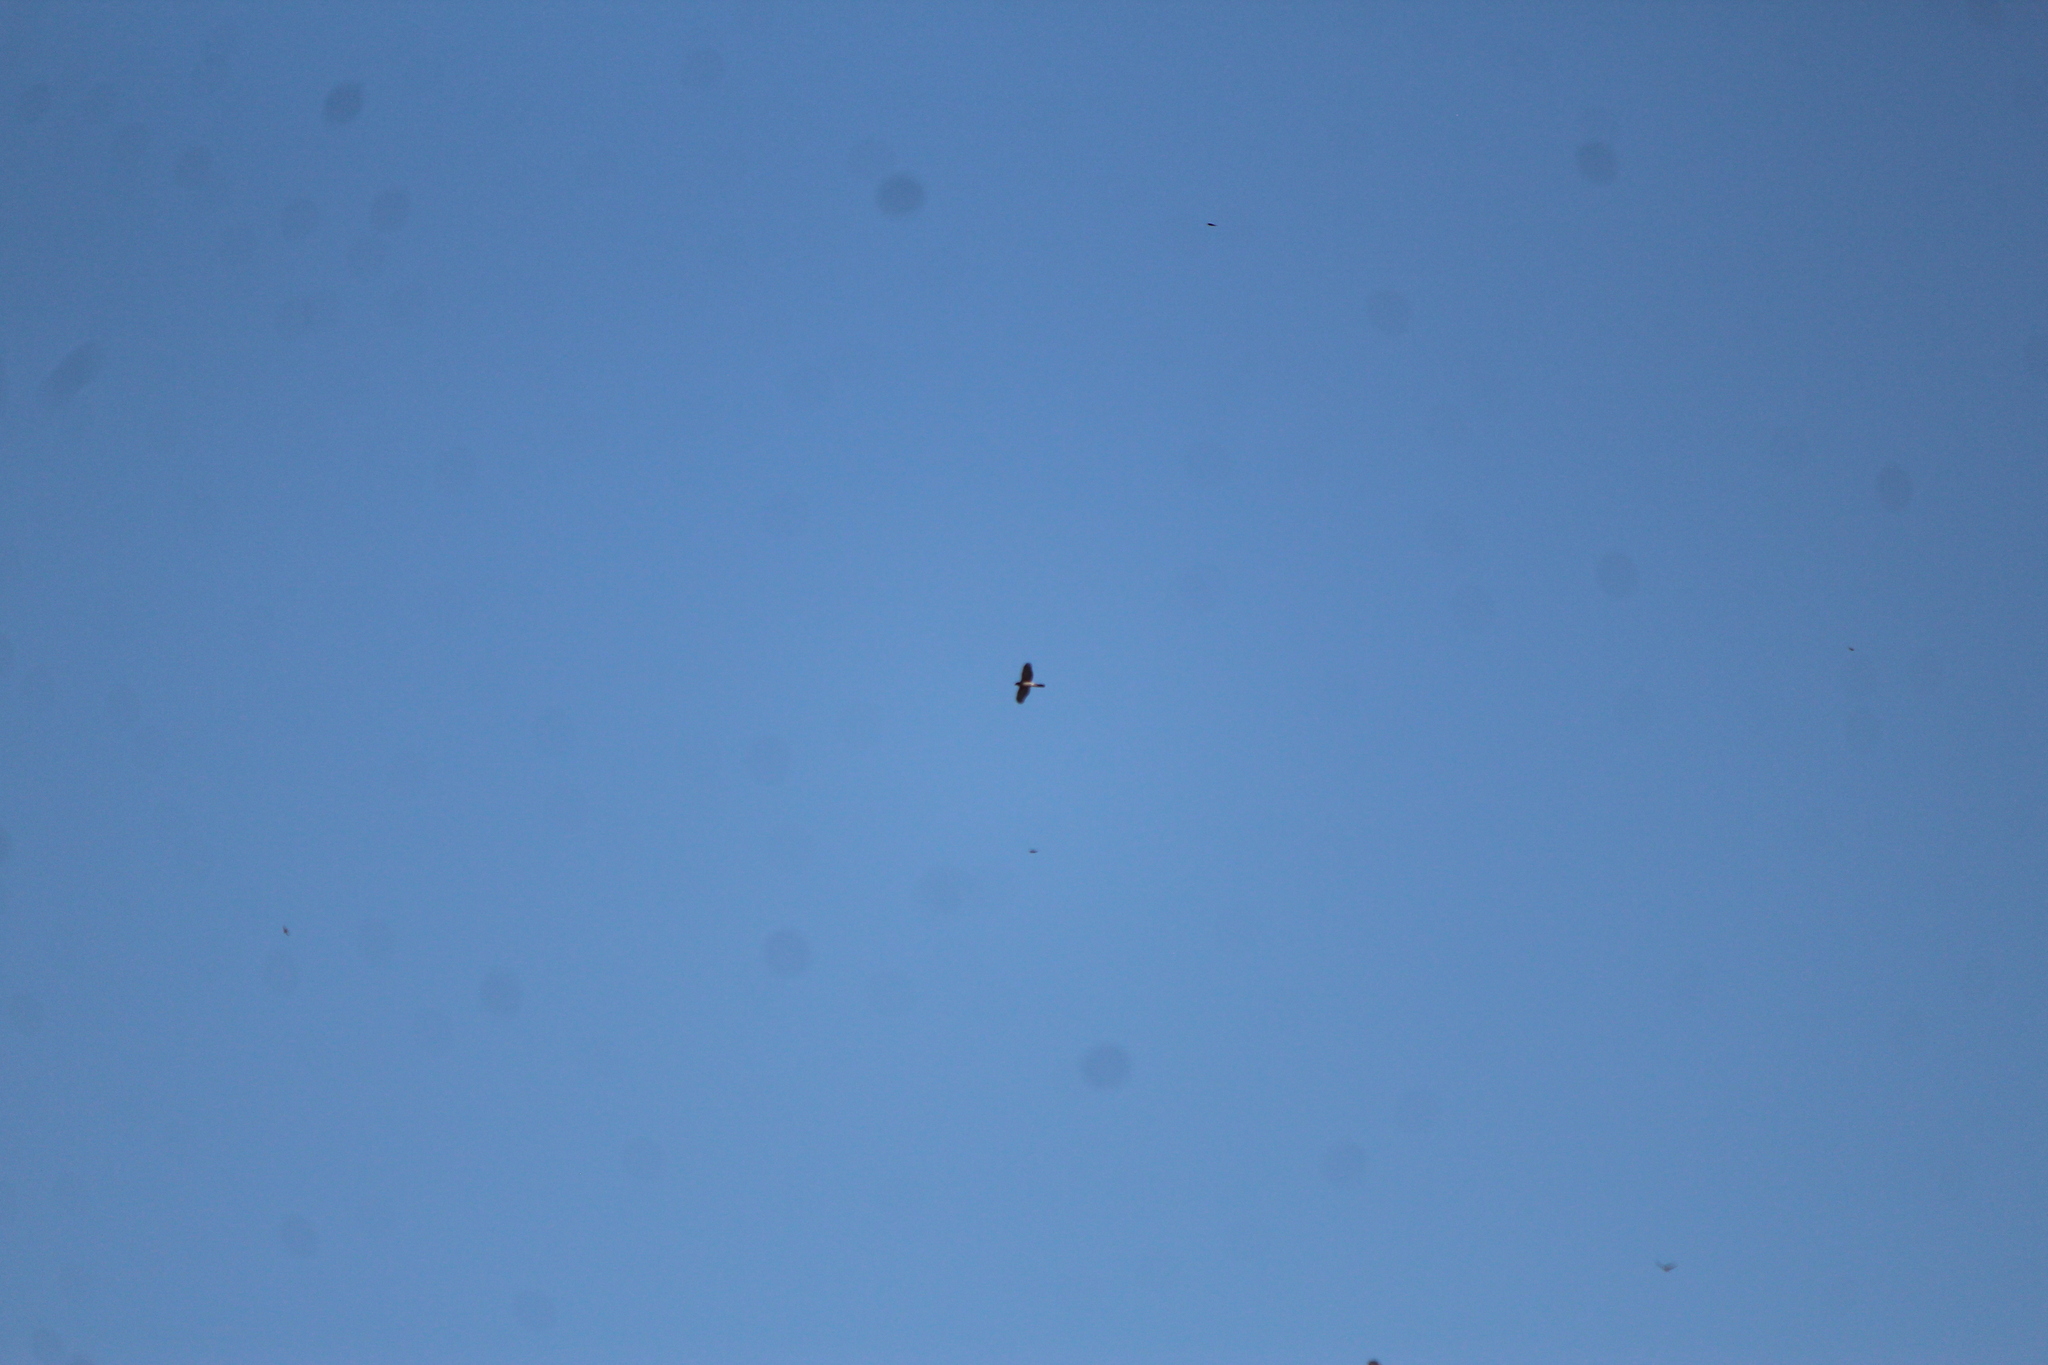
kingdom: Animalia
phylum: Chordata
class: Aves
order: Accipitriformes
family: Accipitridae
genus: Accipiter
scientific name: Accipiter cooperii
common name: Cooper's hawk
